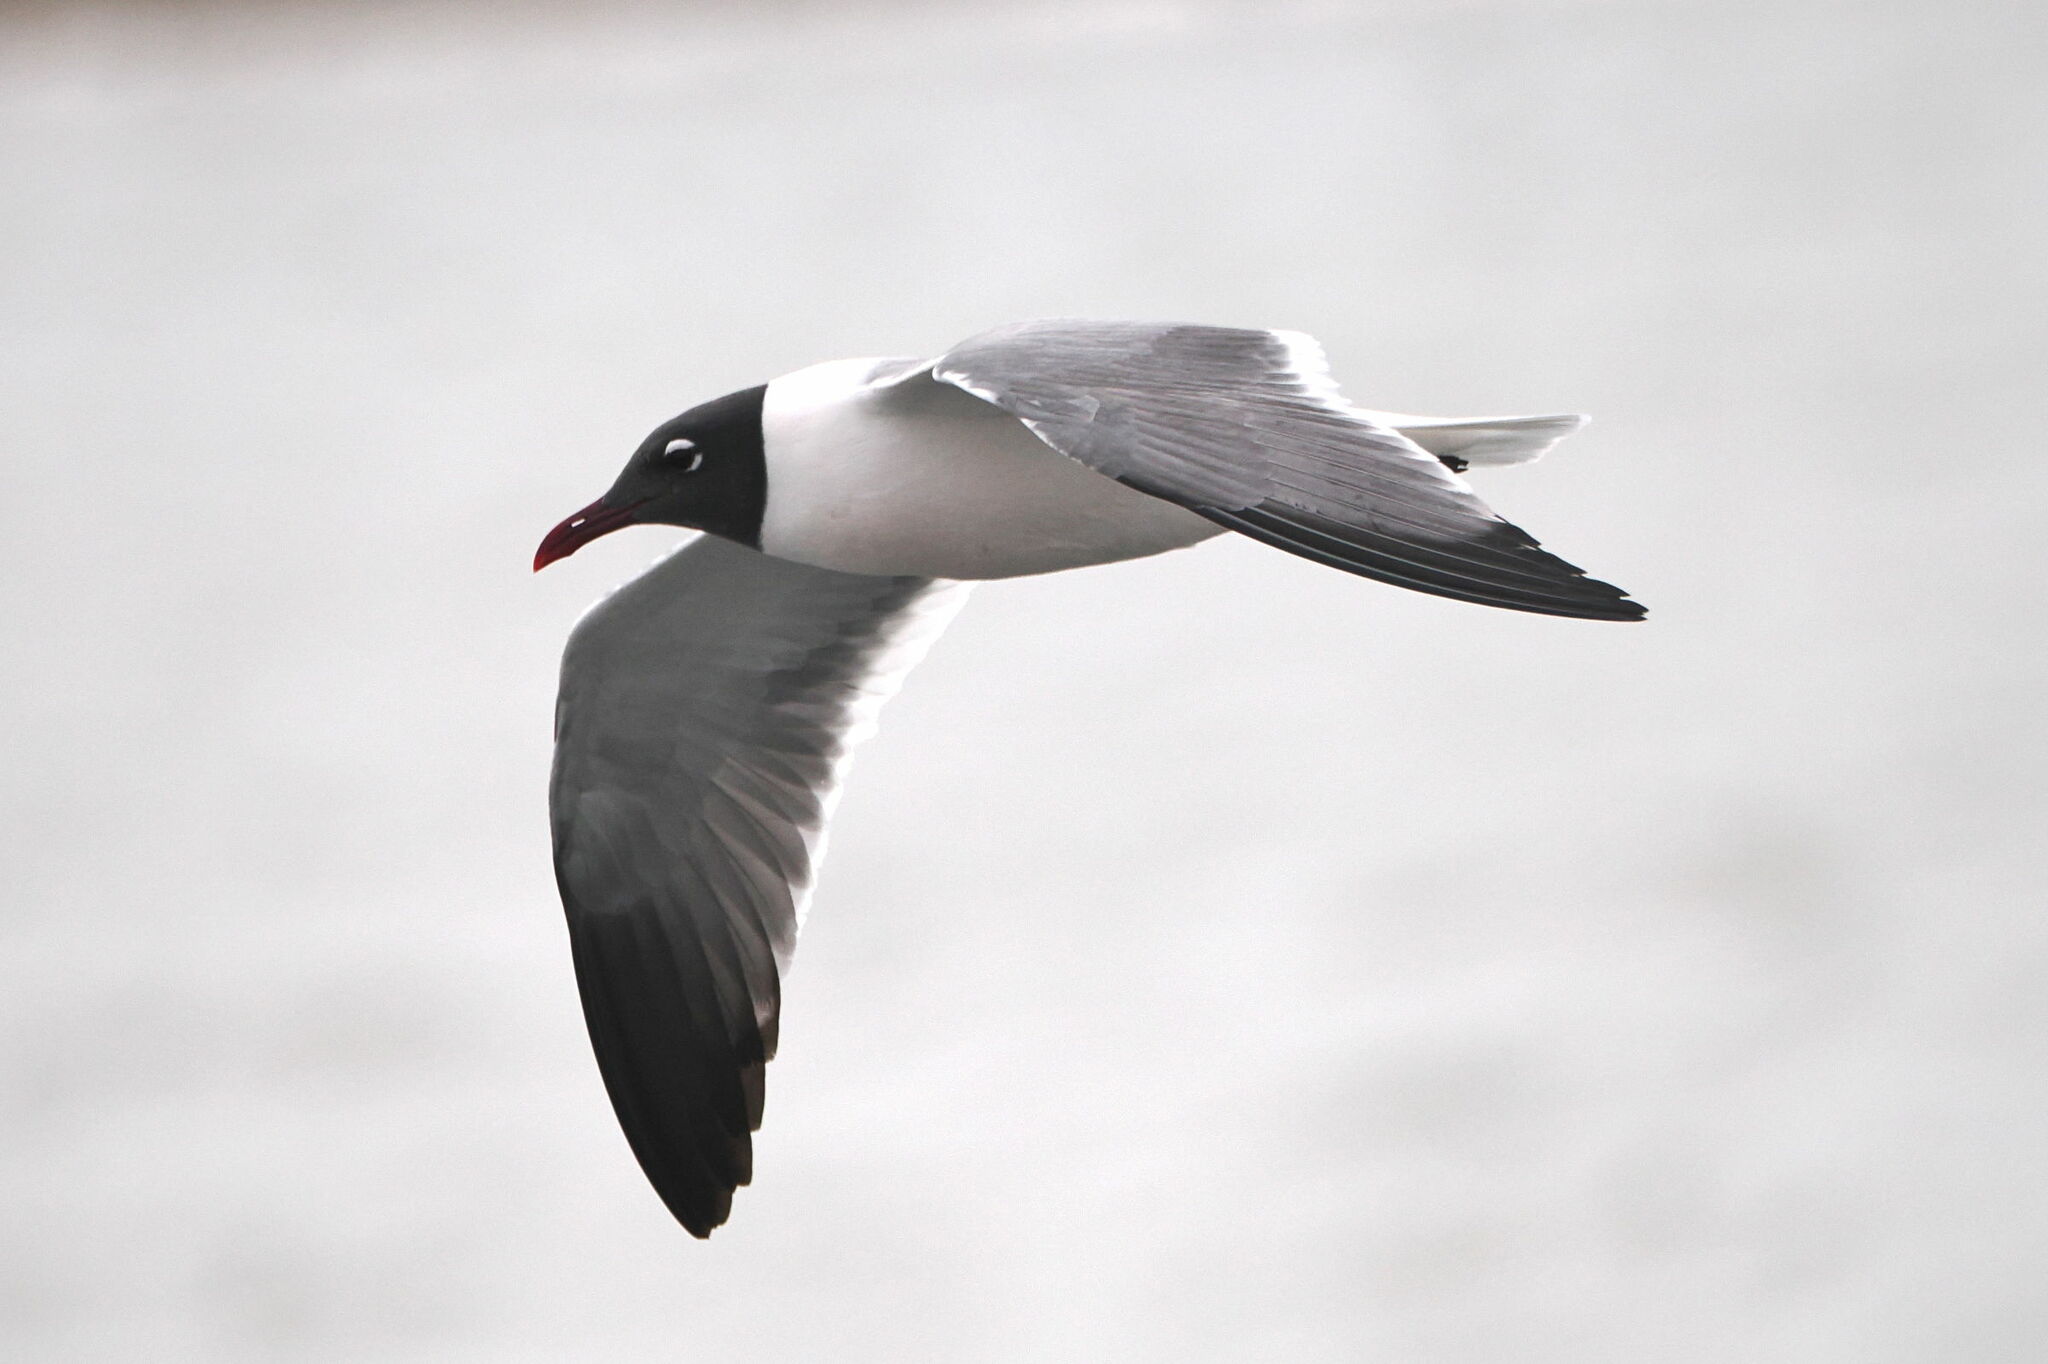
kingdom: Animalia
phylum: Chordata
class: Aves
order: Charadriiformes
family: Laridae
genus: Leucophaeus
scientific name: Leucophaeus atricilla
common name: Laughing gull
